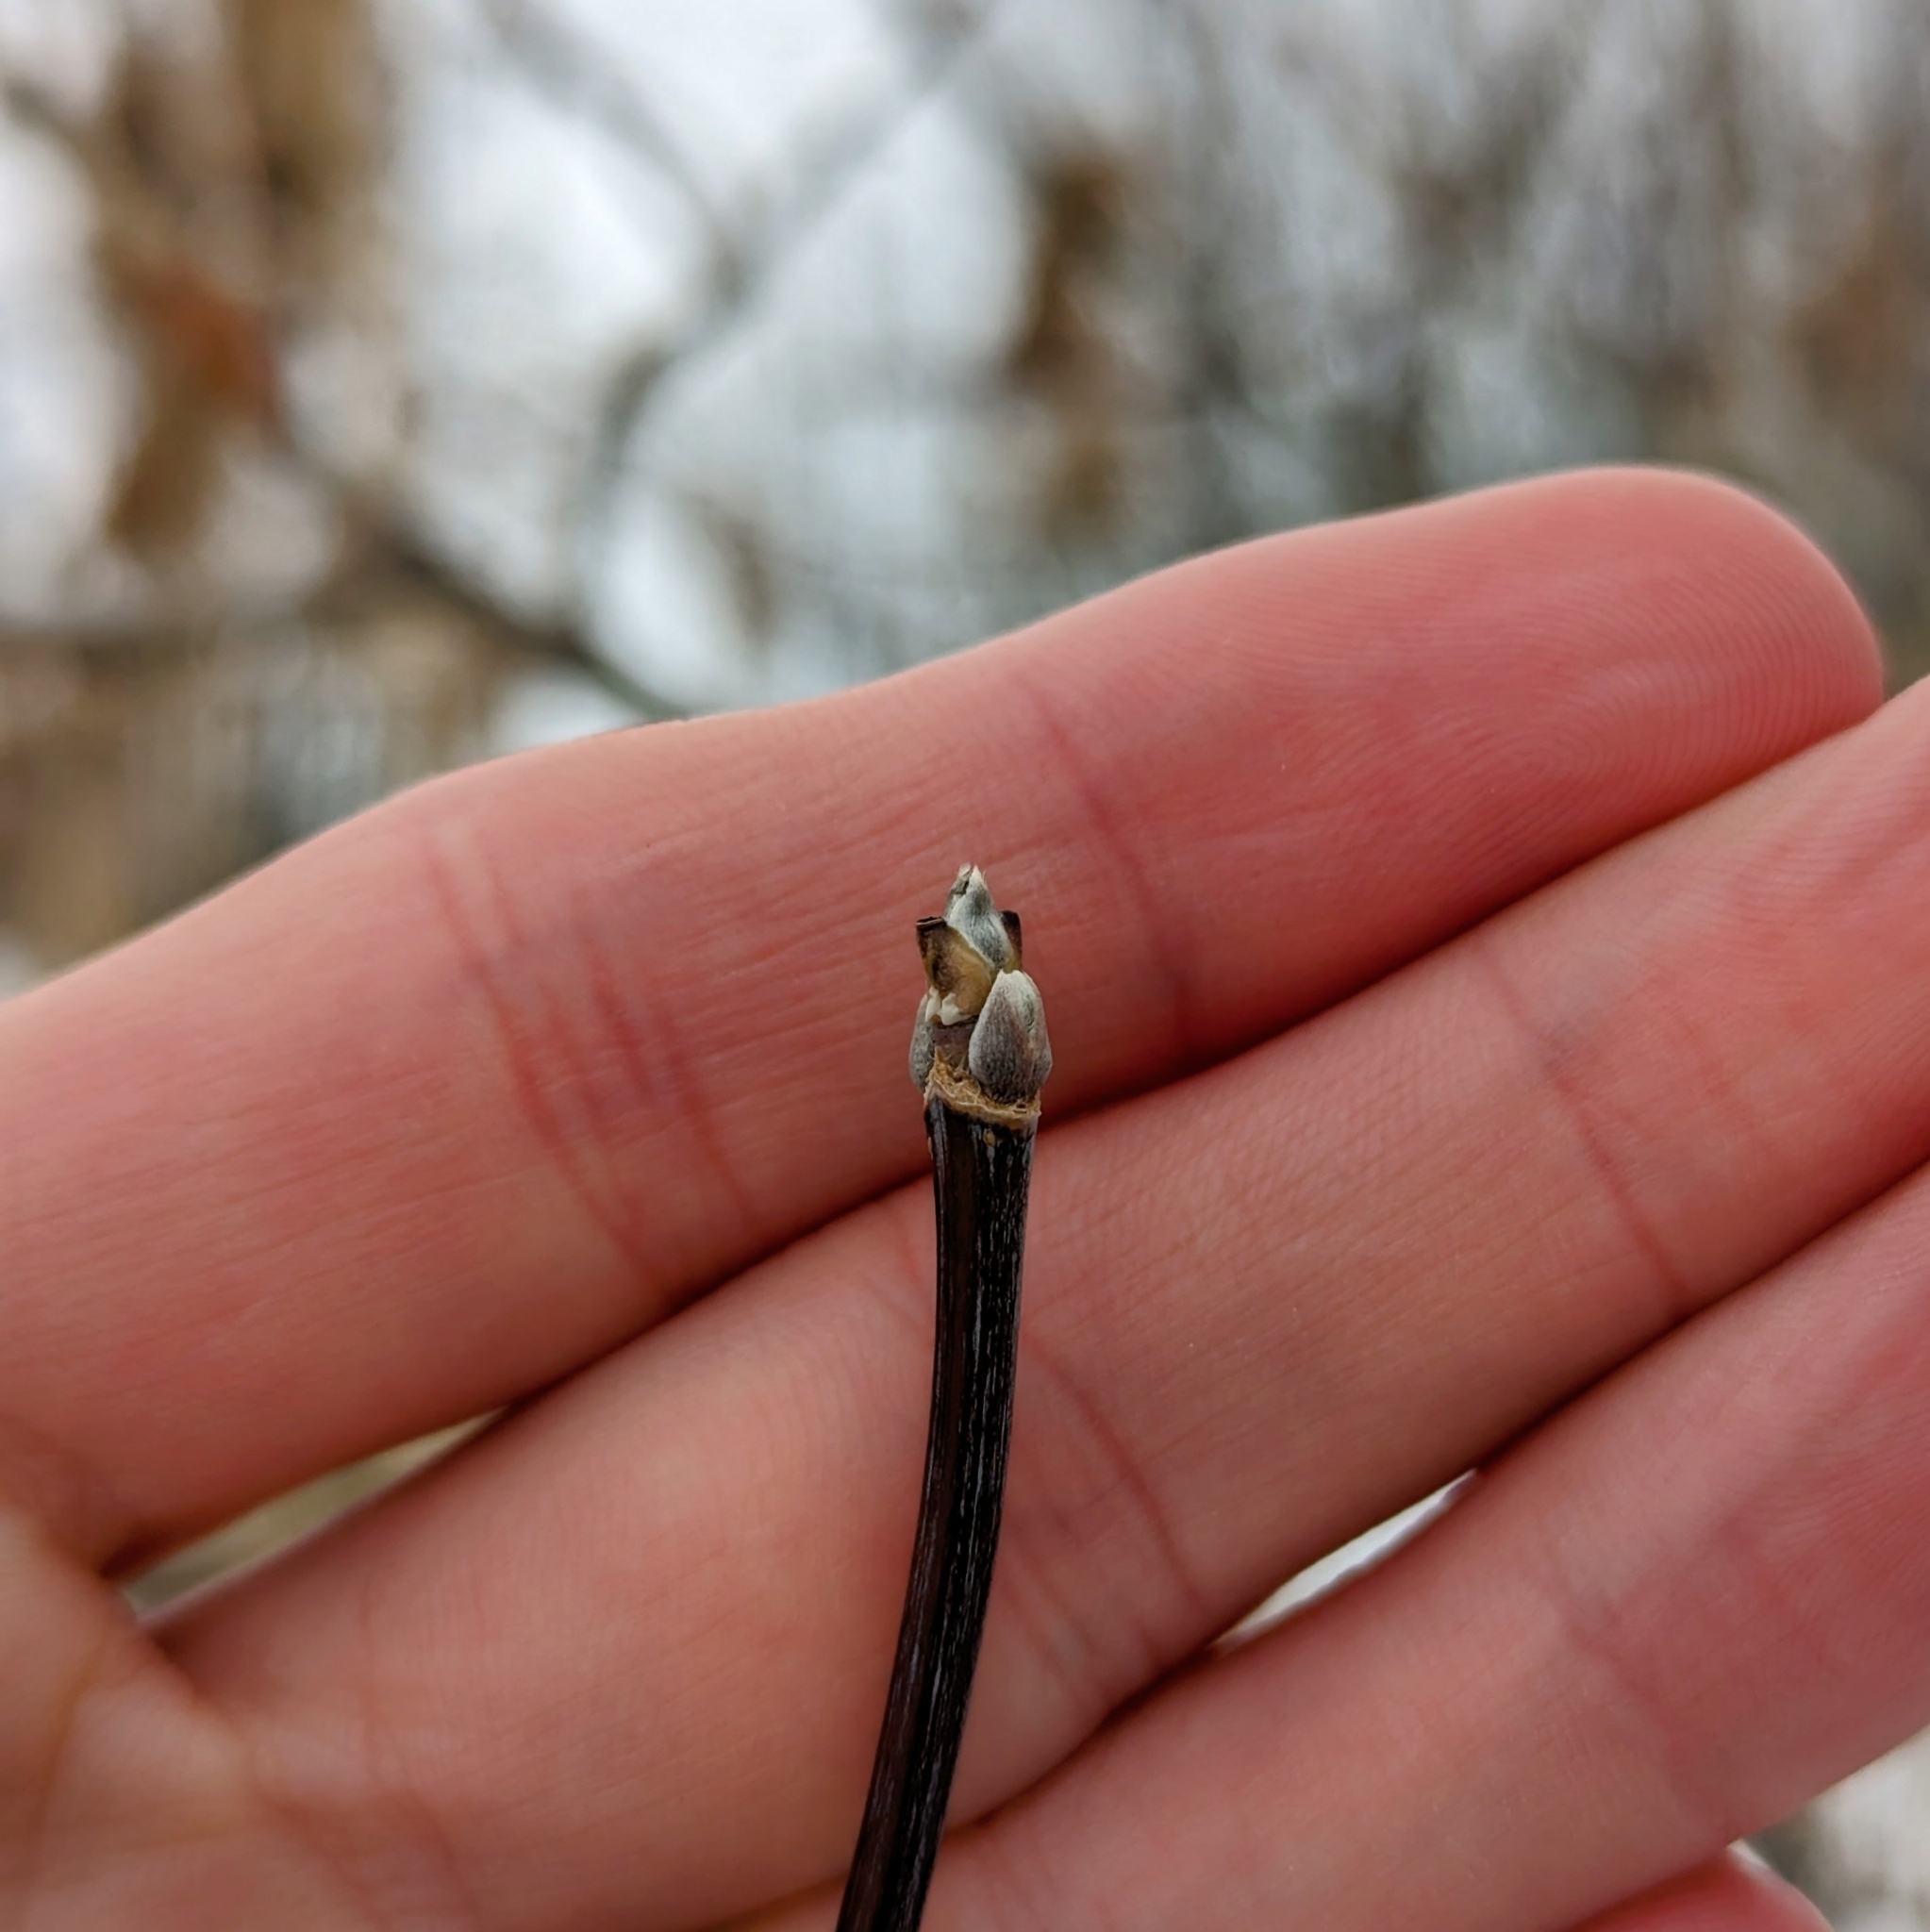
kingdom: Plantae
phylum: Tracheophyta
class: Magnoliopsida
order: Sapindales
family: Sapindaceae
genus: Acer
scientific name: Acer negundo
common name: Ashleaf maple
